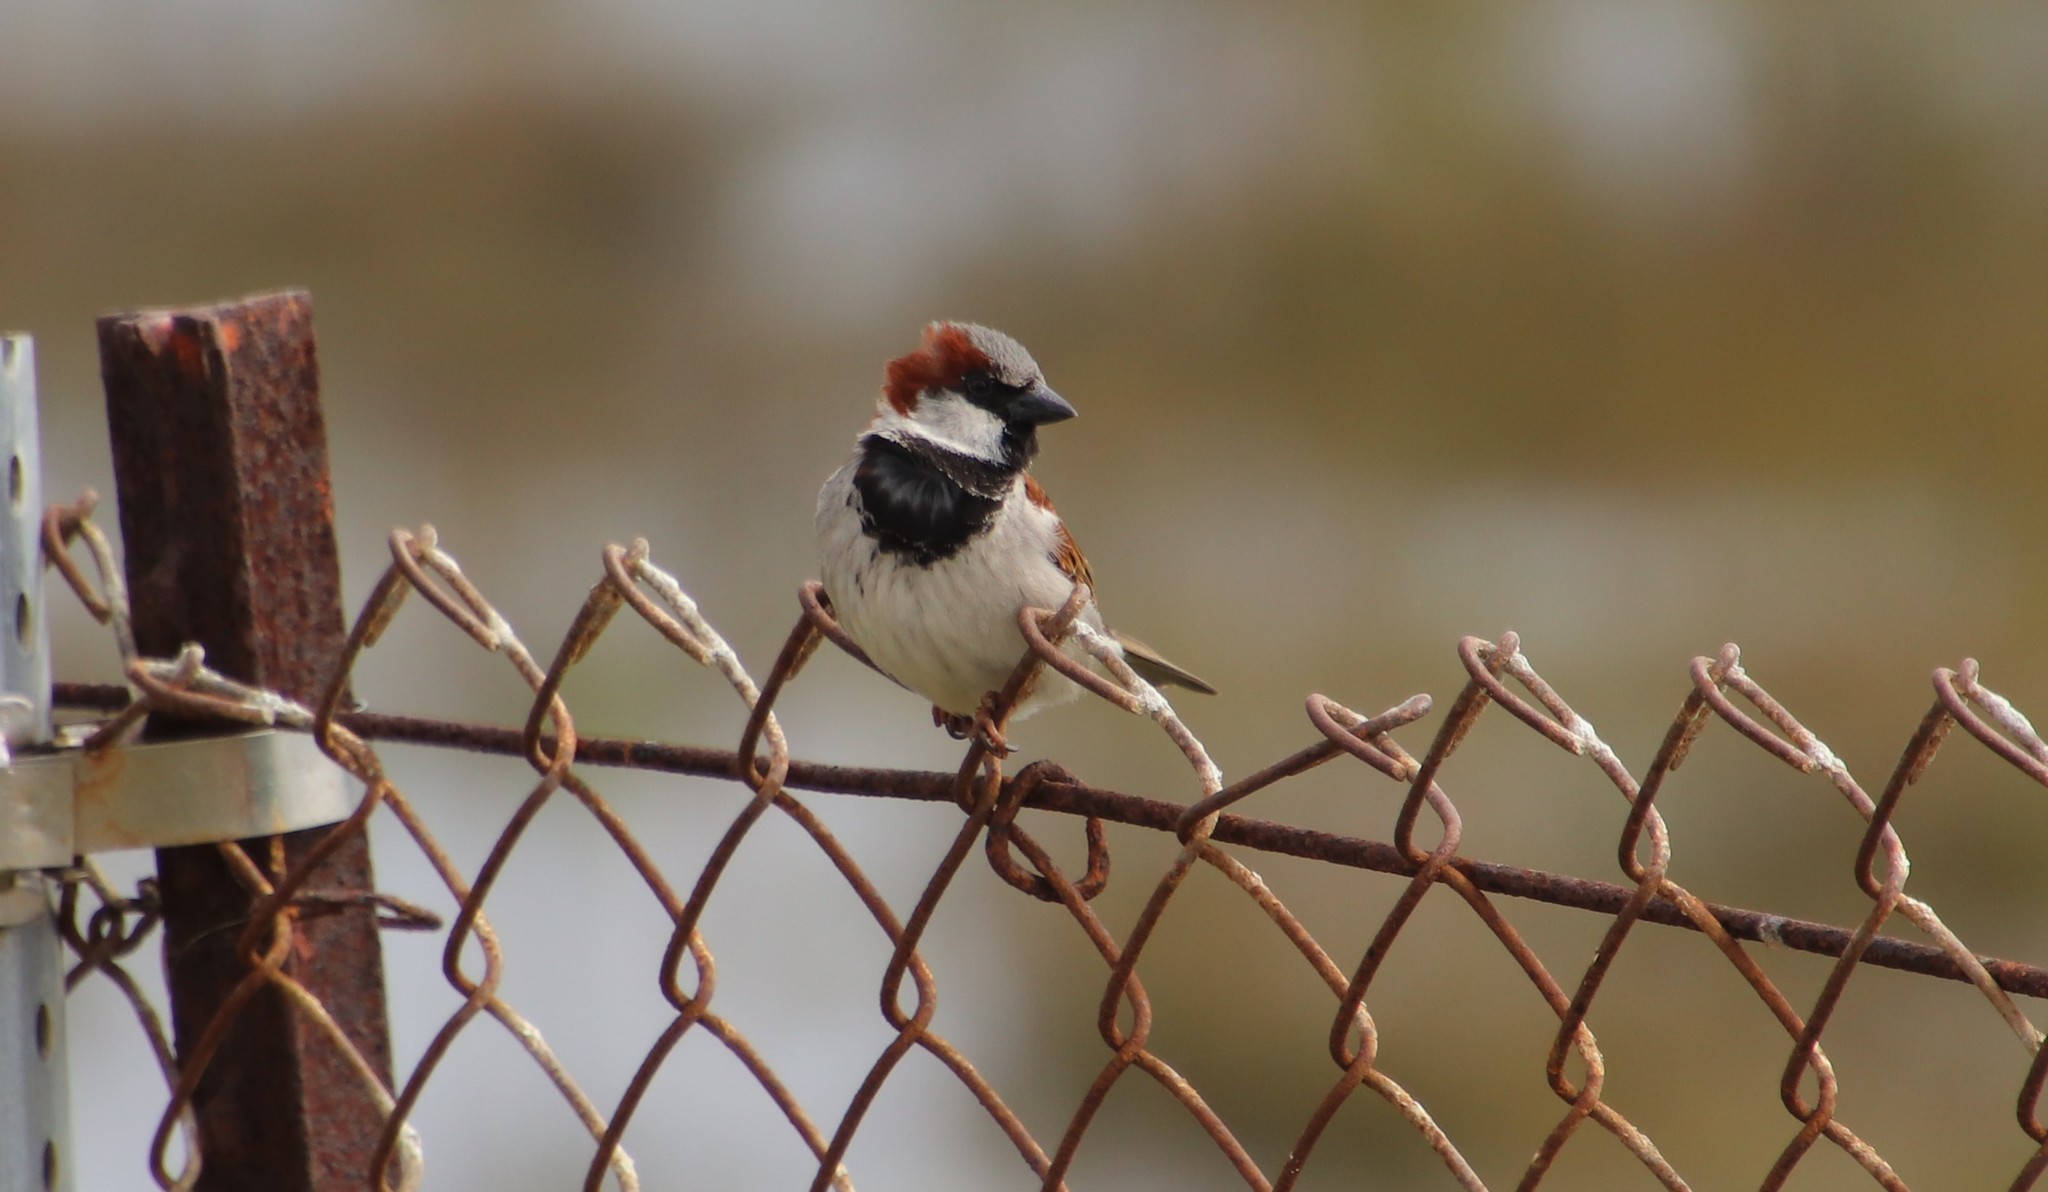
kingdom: Animalia
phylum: Chordata
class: Aves
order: Passeriformes
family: Passeridae
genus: Passer
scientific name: Passer domesticus
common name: House sparrow
